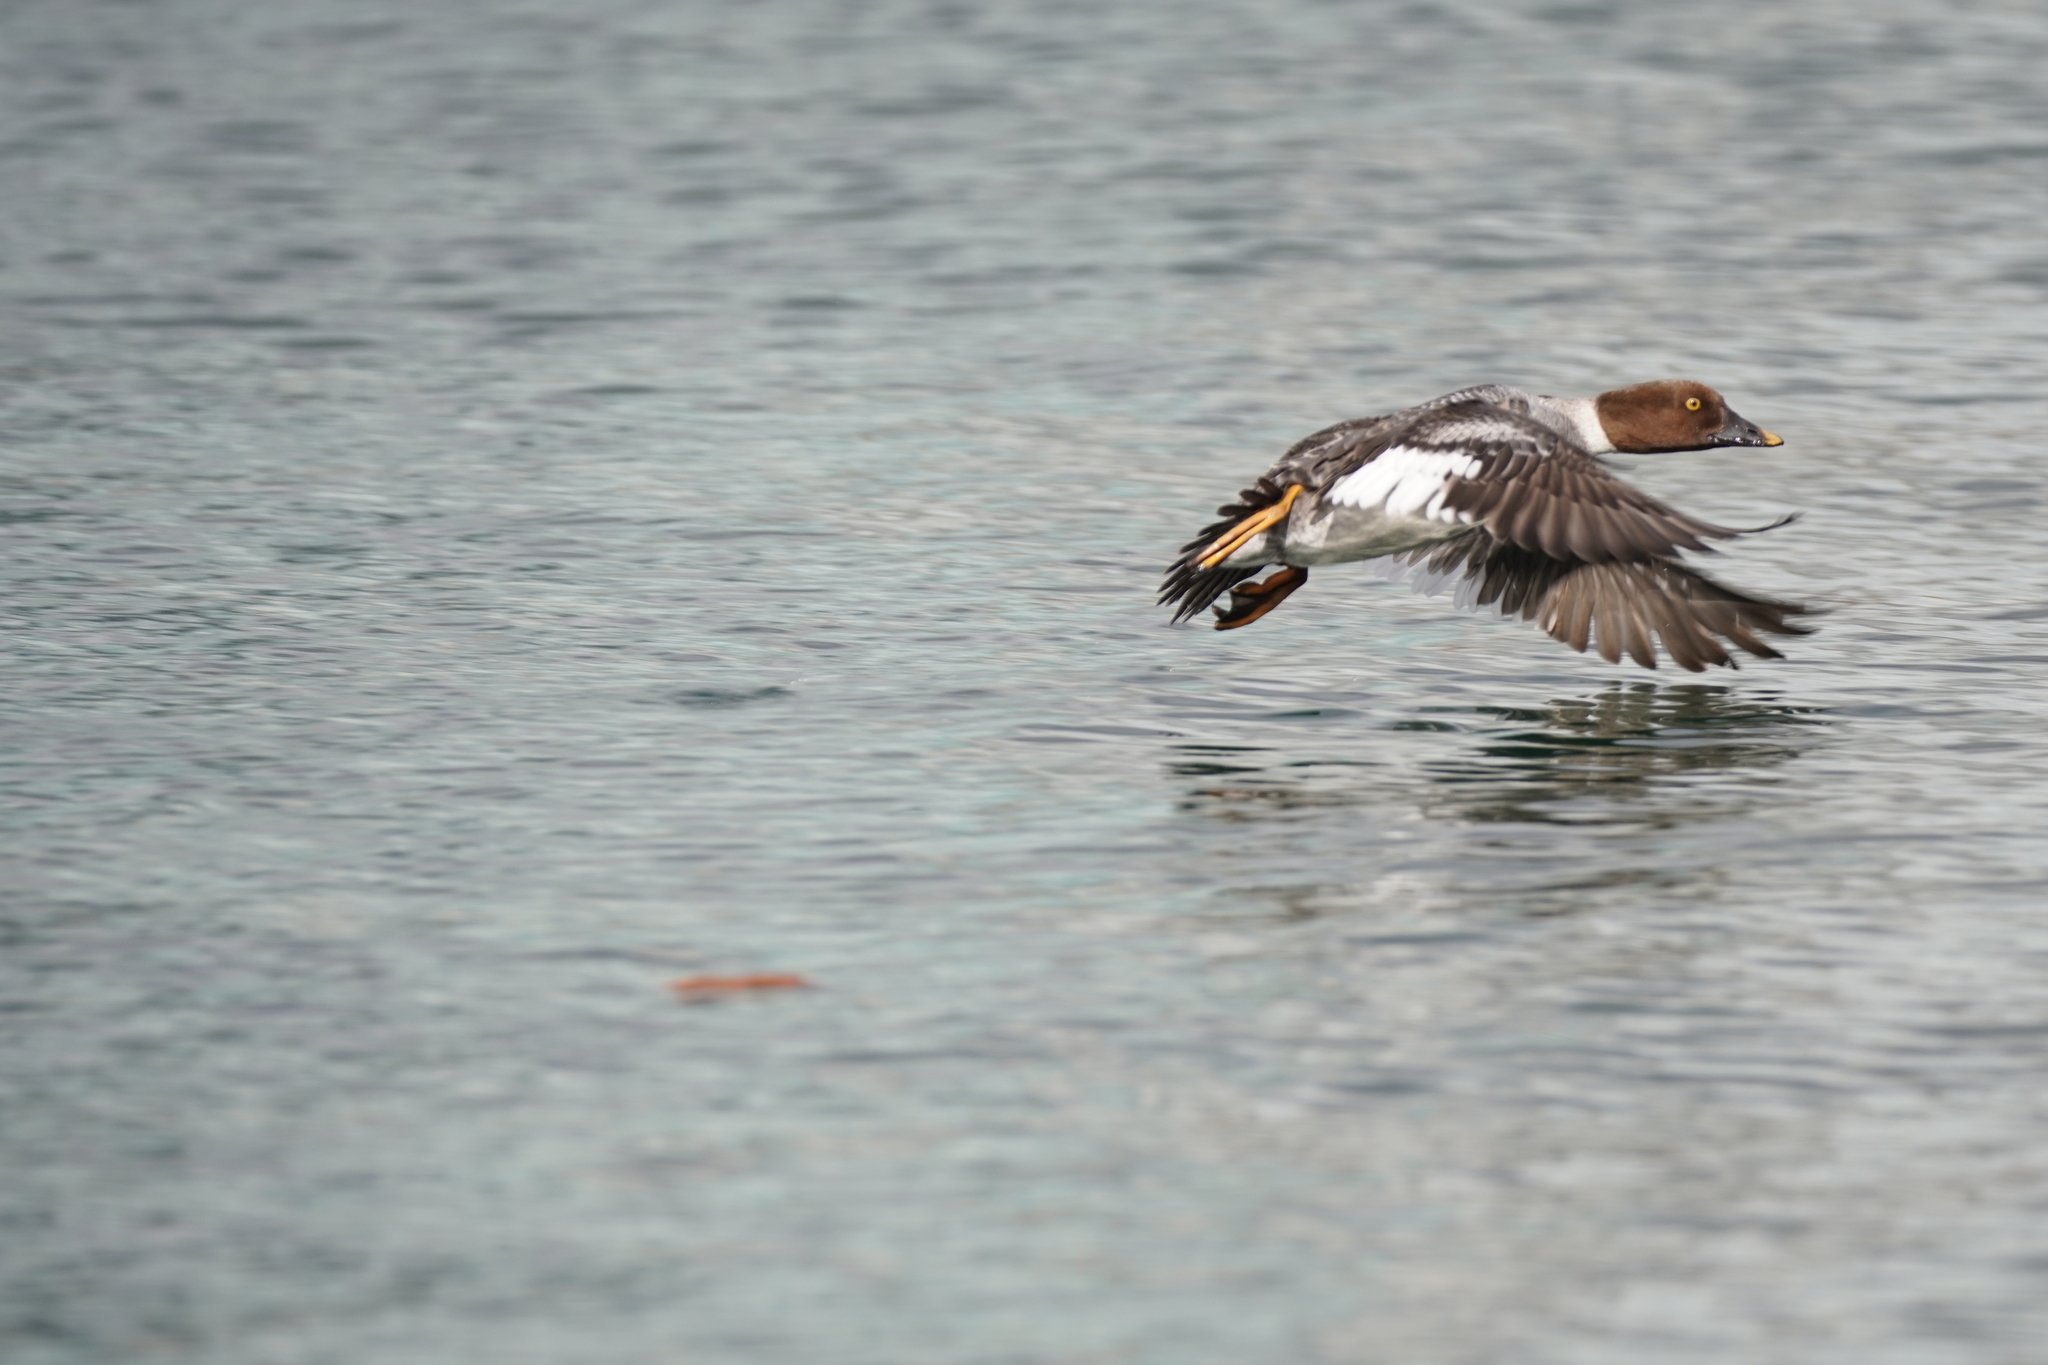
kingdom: Animalia
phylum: Chordata
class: Aves
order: Anseriformes
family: Anatidae
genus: Bucephala
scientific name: Bucephala islandica
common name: Barrow's goldeneye
